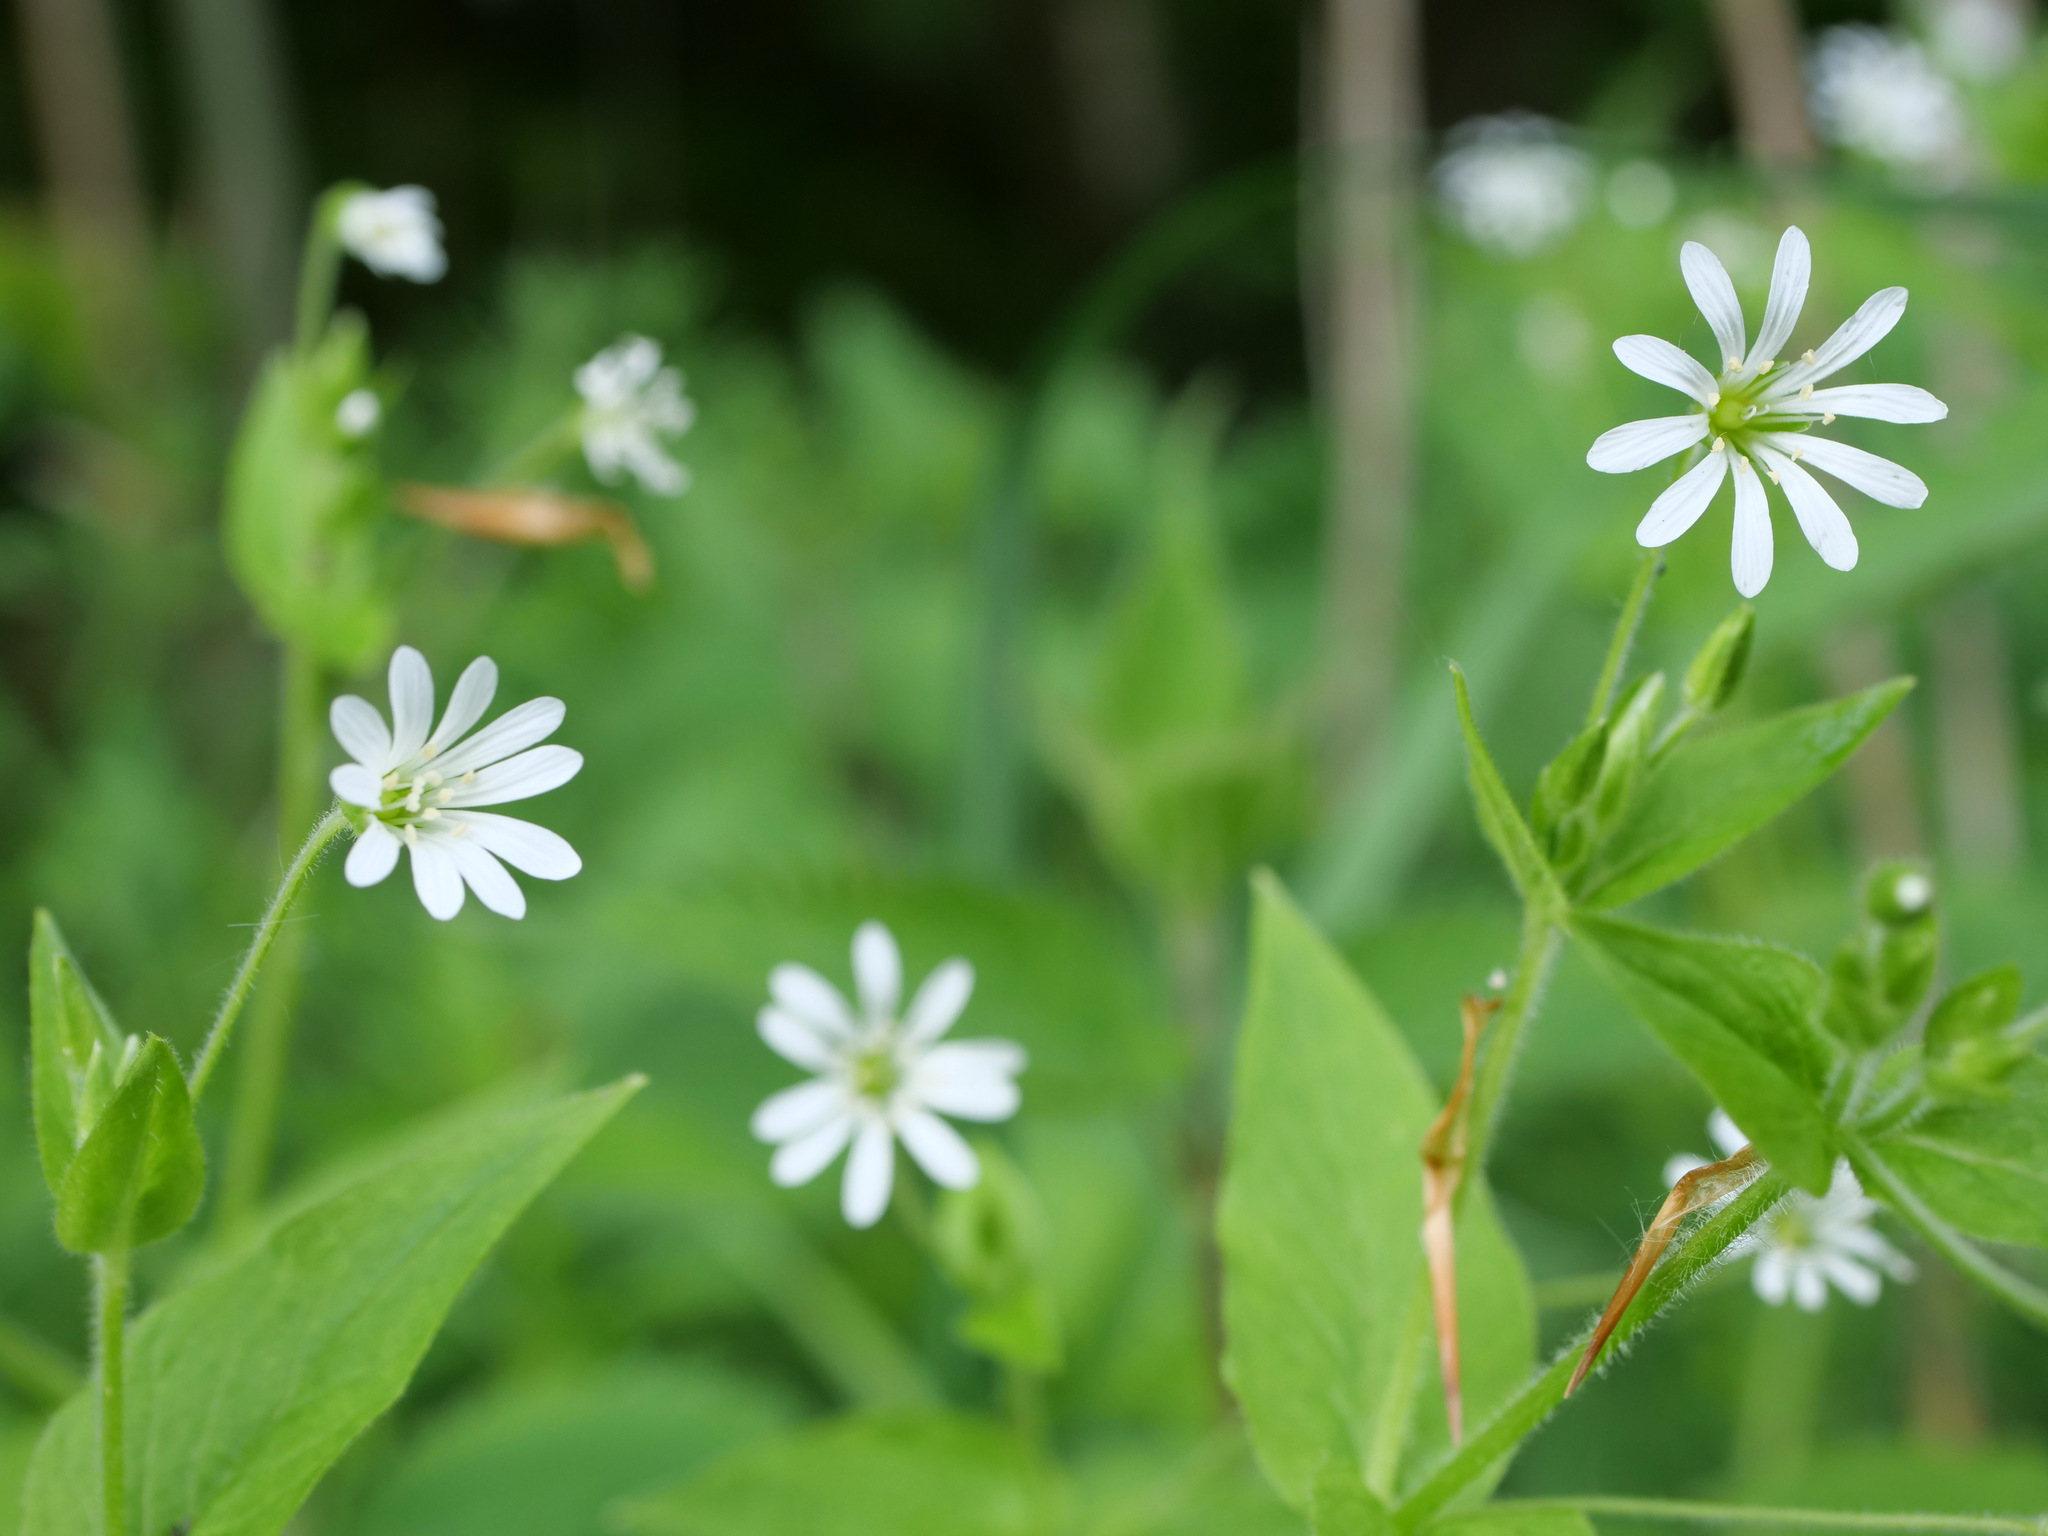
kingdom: Plantae
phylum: Tracheophyta
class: Magnoliopsida
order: Caryophyllales
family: Caryophyllaceae
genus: Stellaria
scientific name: Stellaria nemorum
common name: Wood stitchwort
